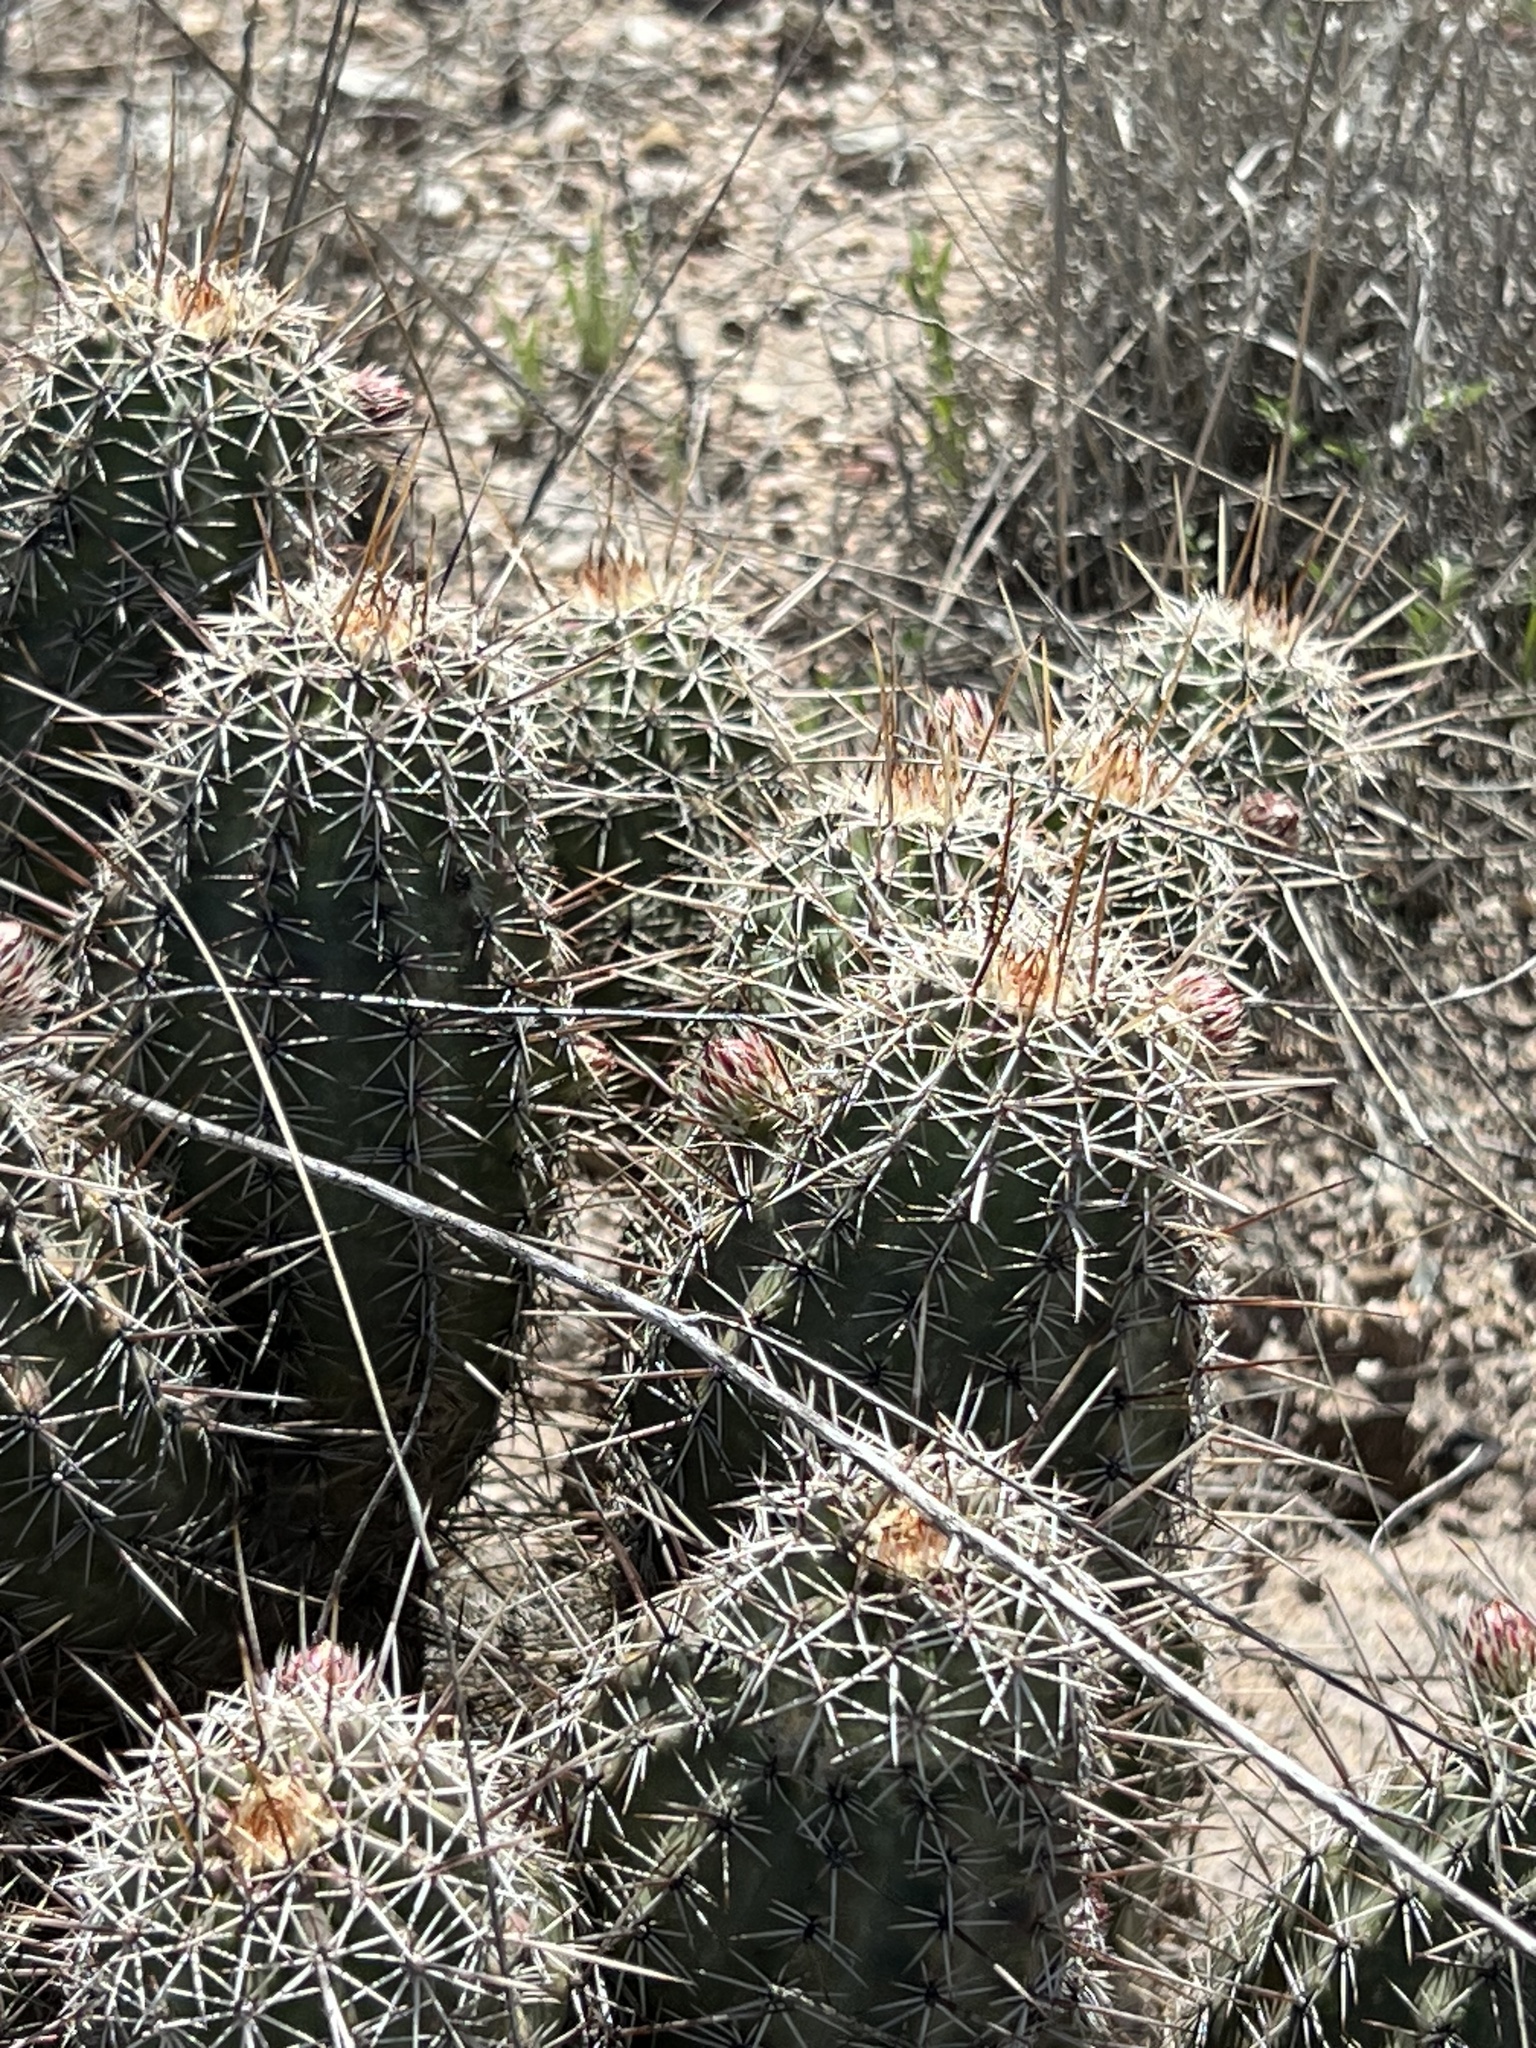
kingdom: Plantae
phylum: Tracheophyta
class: Magnoliopsida
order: Caryophyllales
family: Cactaceae
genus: Echinocereus
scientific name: Echinocereus fasciculatus
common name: Bundle hedgehog
